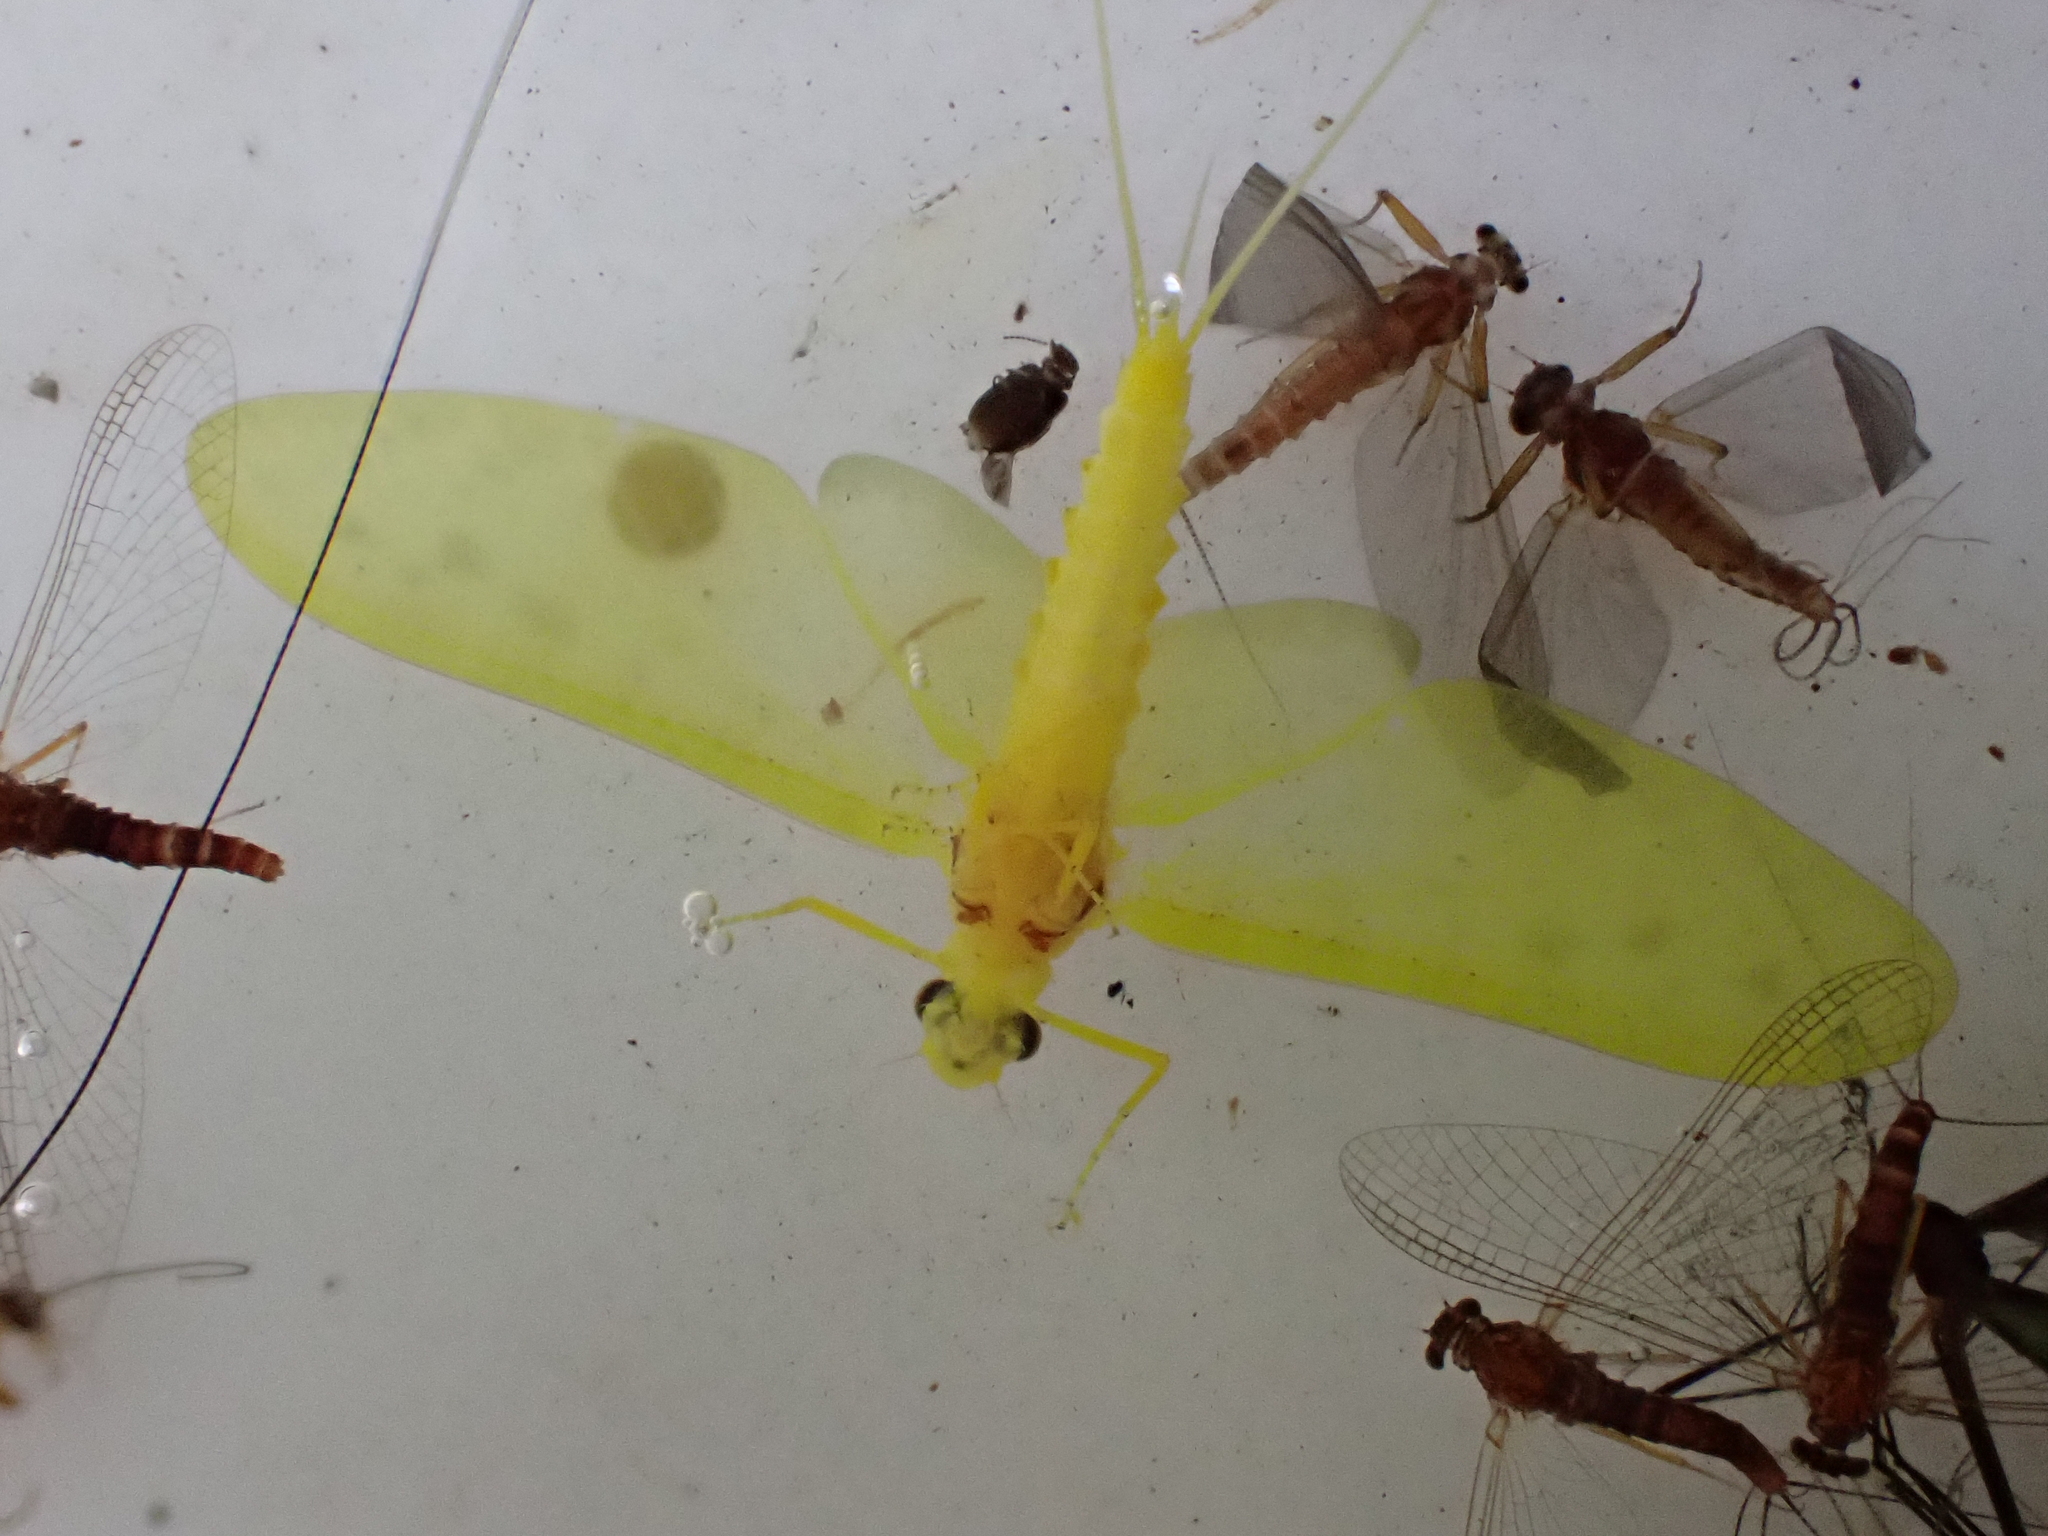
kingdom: Animalia
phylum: Arthropoda
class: Insecta
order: Ephemeroptera
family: Ameletopsidae
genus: Ameletopsis
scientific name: Ameletopsis perscitus
